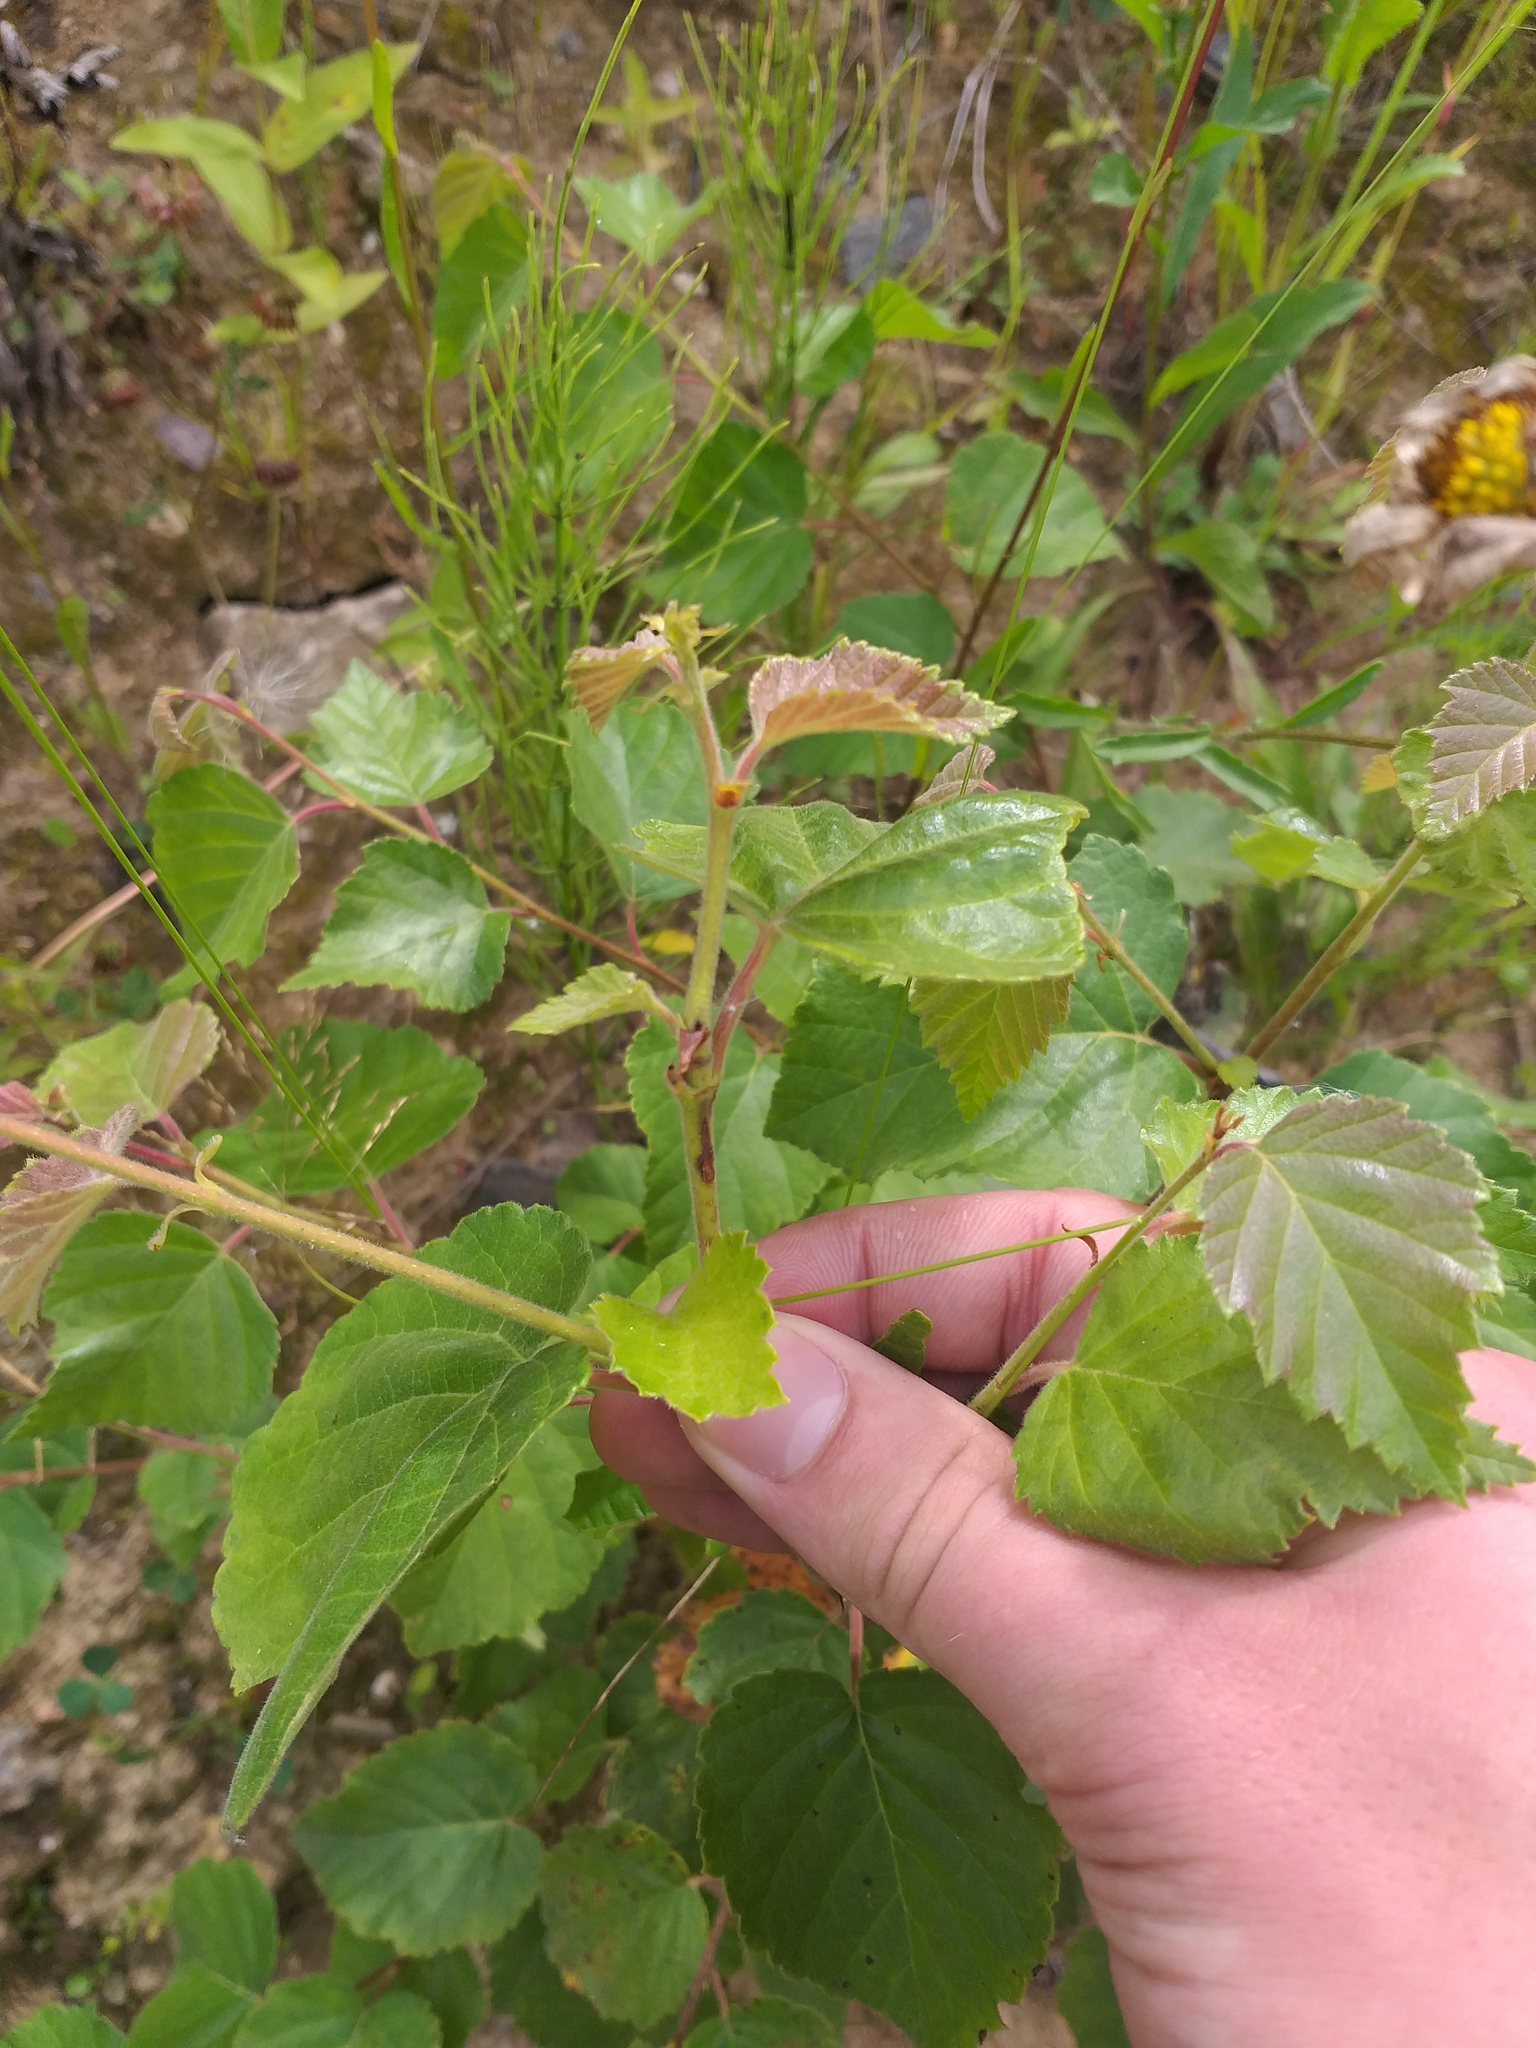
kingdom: Plantae
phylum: Tracheophyta
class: Magnoliopsida
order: Fagales
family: Betulaceae
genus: Betula
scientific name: Betula pubescens
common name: Downy birch
